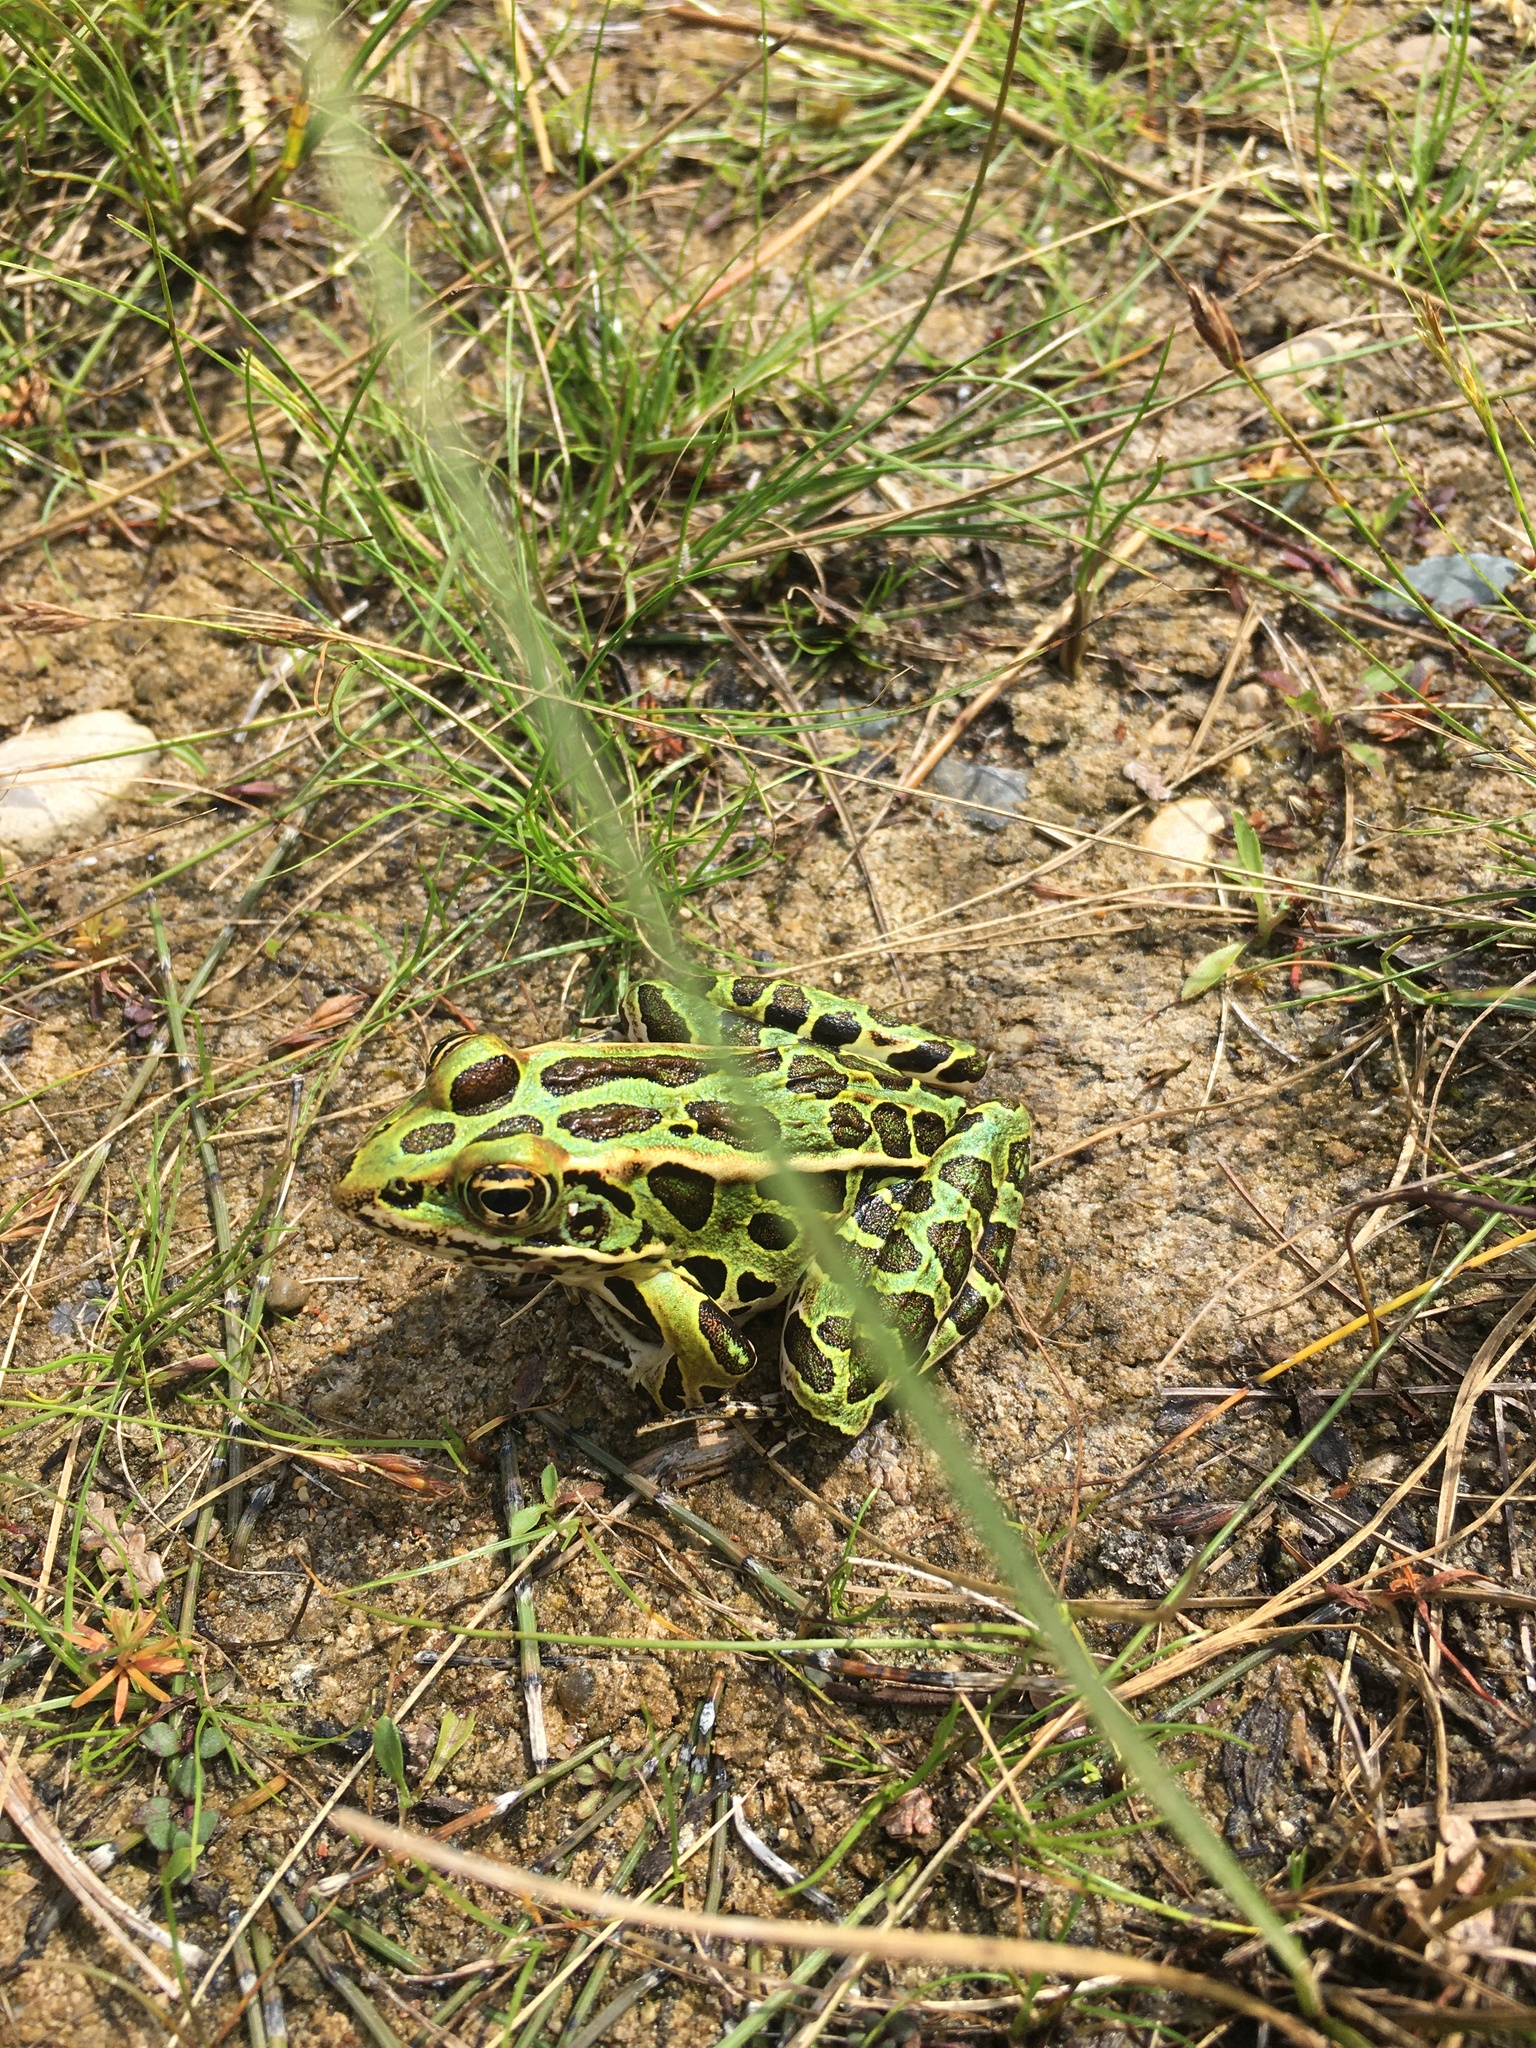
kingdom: Animalia
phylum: Chordata
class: Amphibia
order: Anura
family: Ranidae
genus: Lithobates
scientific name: Lithobates pipiens
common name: Northern leopard frog
